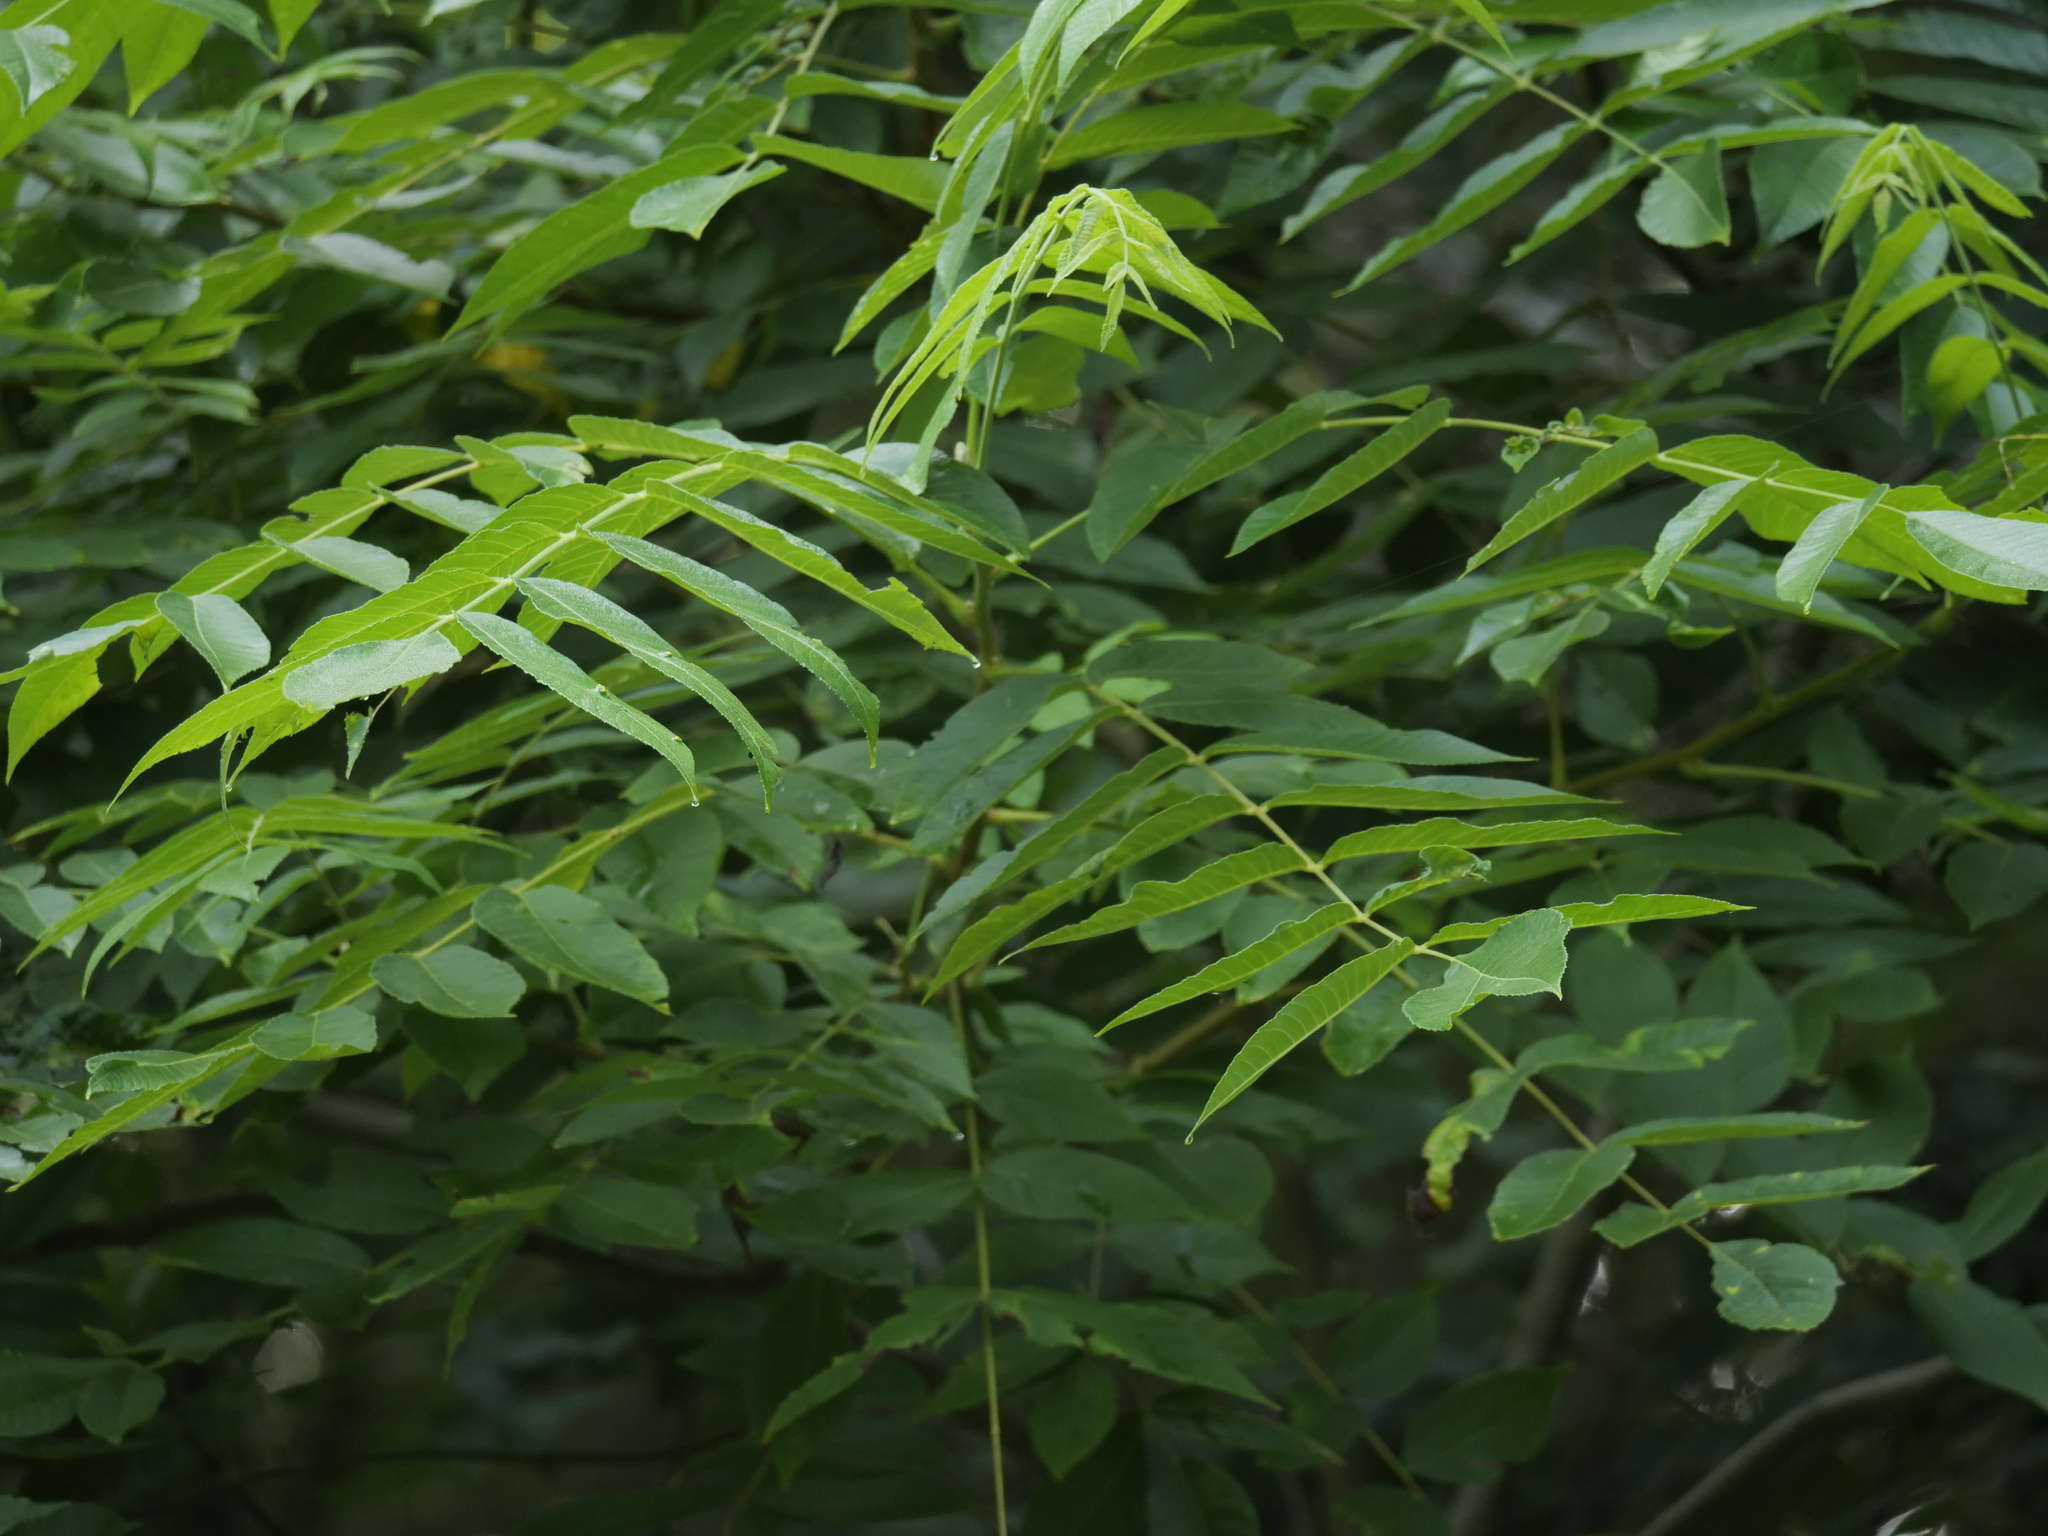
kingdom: Plantae
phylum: Tracheophyta
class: Magnoliopsida
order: Fagales
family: Juglandaceae
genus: Juglans
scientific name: Juglans cinerea
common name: Butternut
